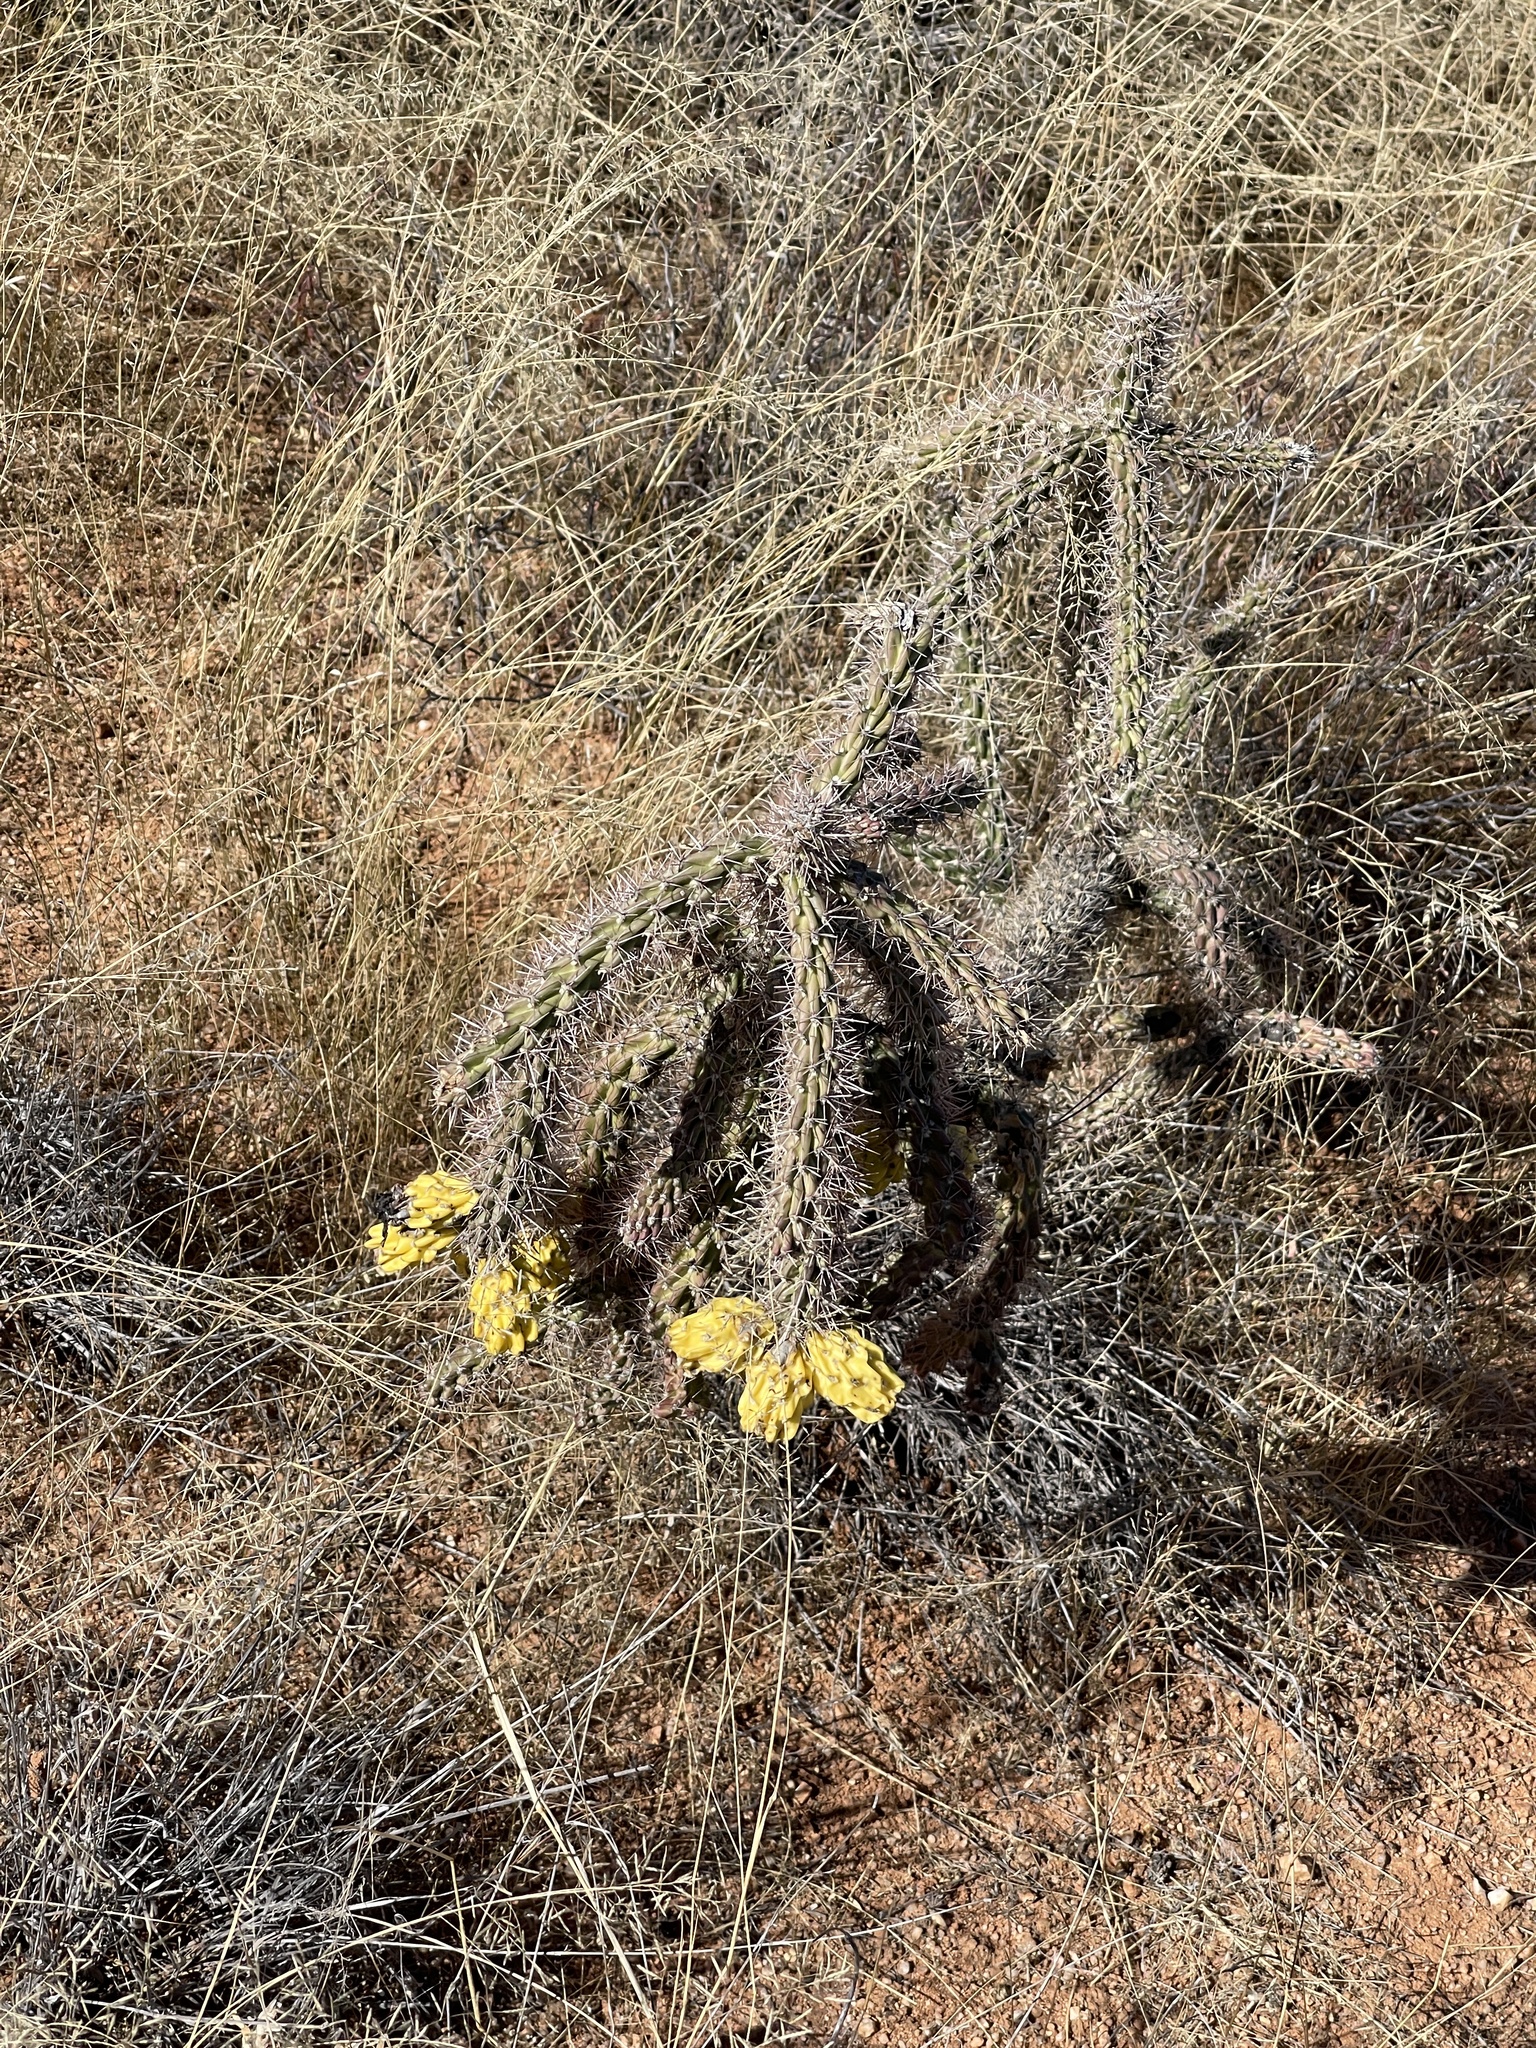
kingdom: Plantae
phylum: Tracheophyta
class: Magnoliopsida
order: Caryophyllales
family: Cactaceae
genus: Cylindropuntia
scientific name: Cylindropuntia imbricata
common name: Candelabrum cactus
